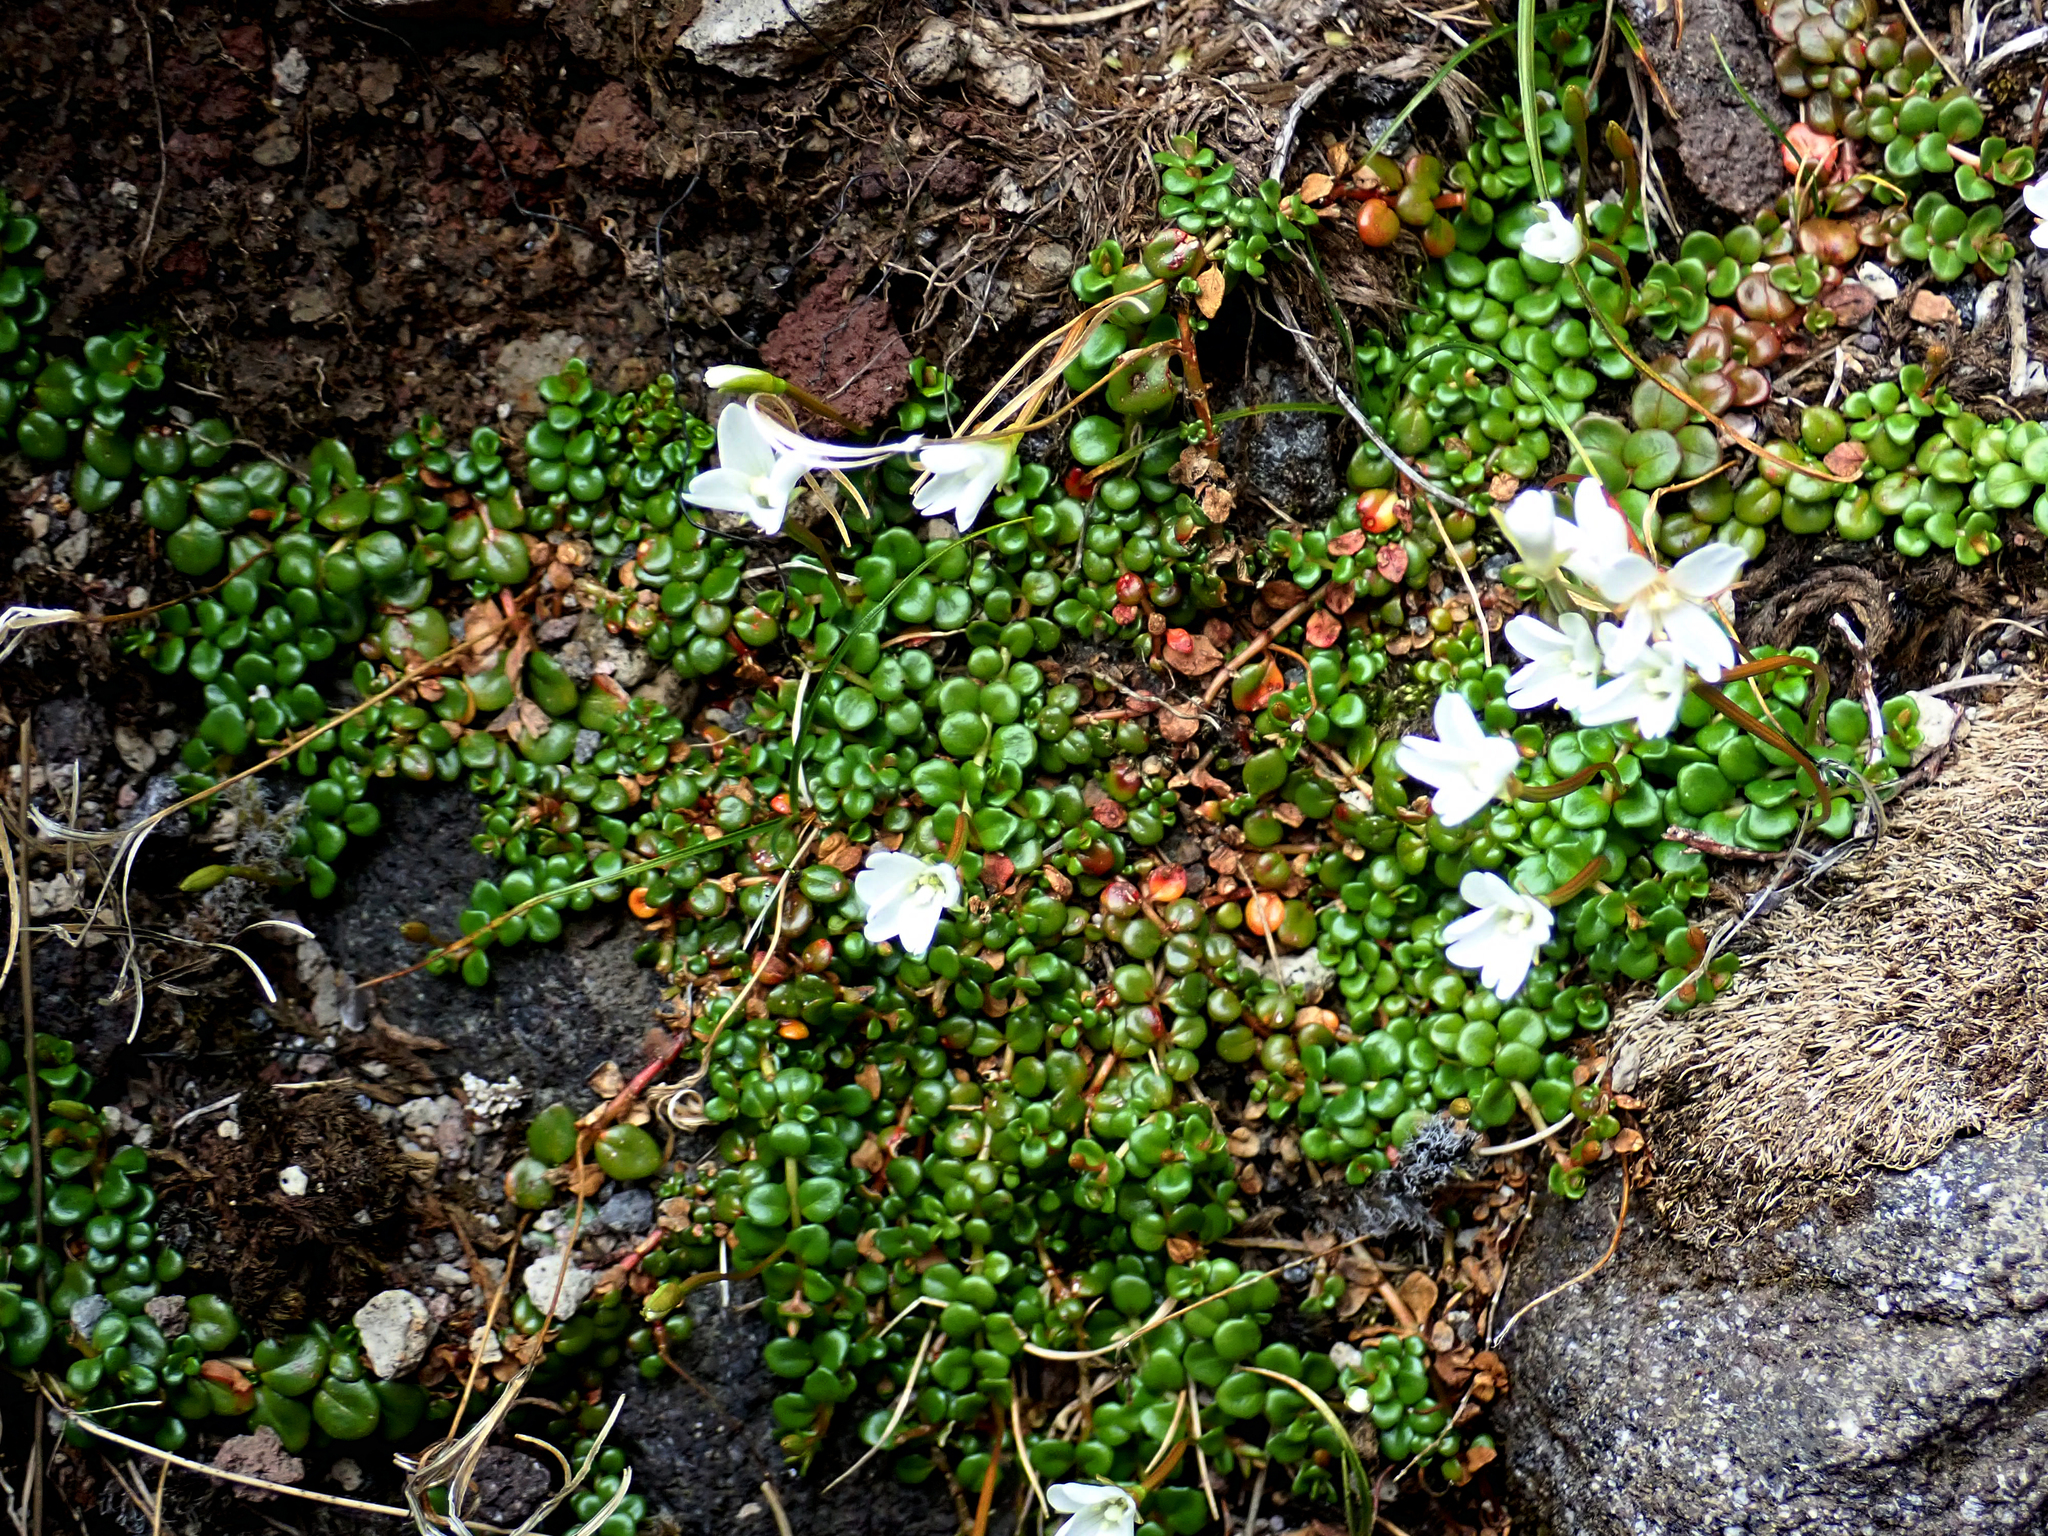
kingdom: Plantae
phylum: Tracheophyta
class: Magnoliopsida
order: Myrtales
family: Onagraceae
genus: Epilobium
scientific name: Epilobium pernitens
